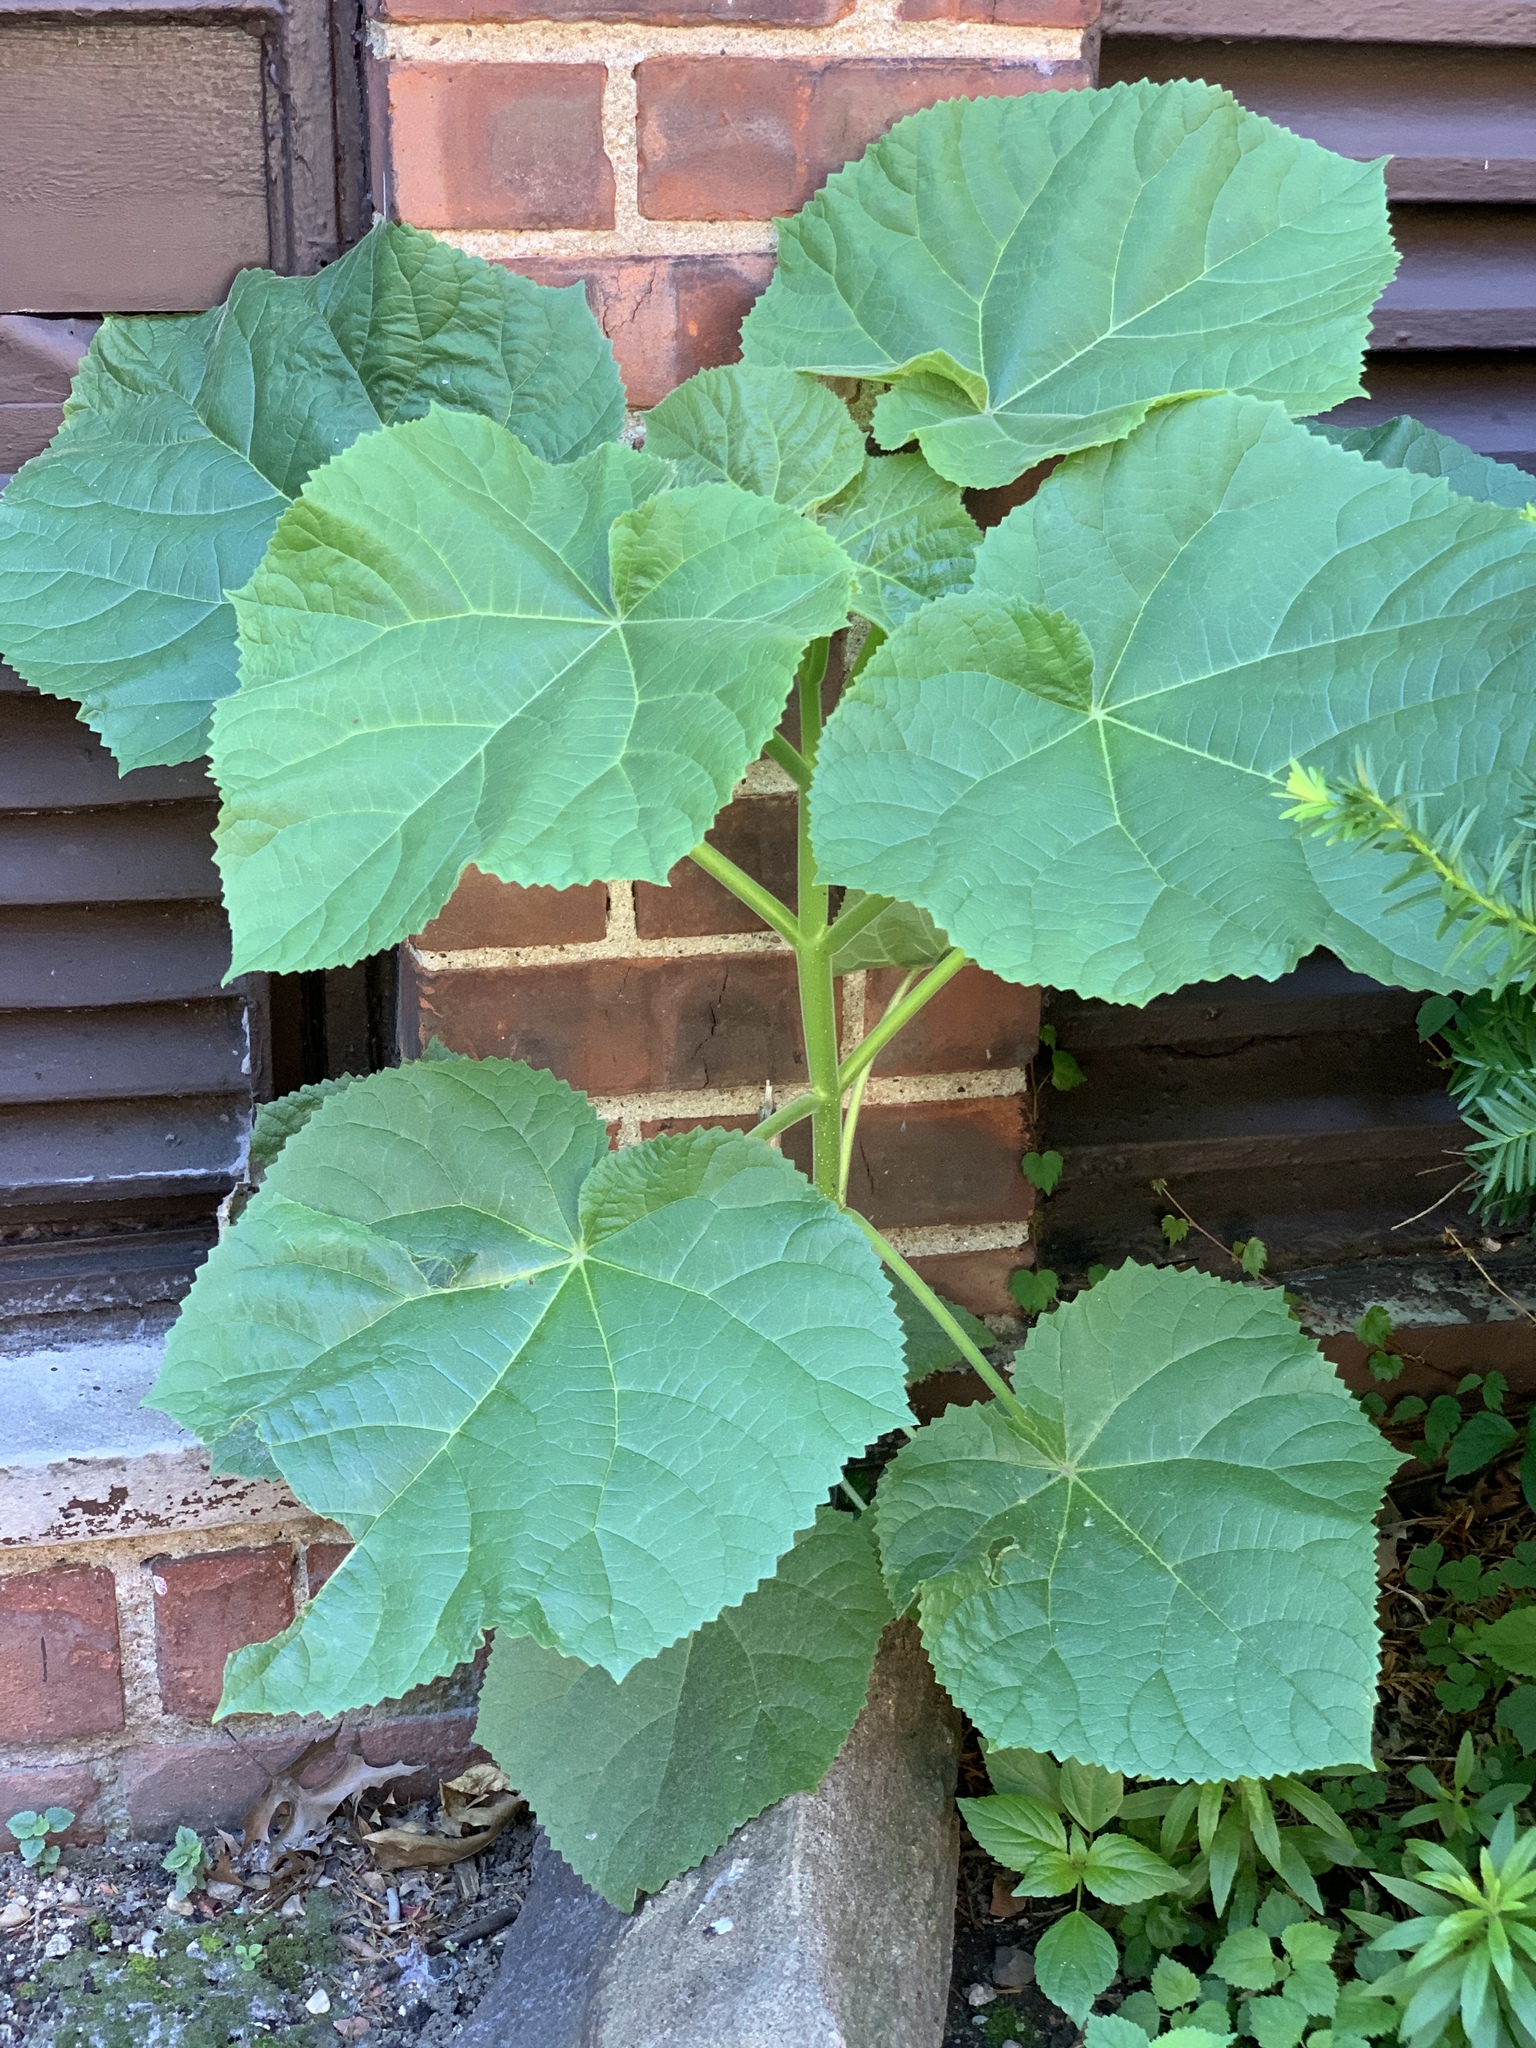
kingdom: Plantae
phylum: Tracheophyta
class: Magnoliopsida
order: Lamiales
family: Paulowniaceae
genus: Paulownia
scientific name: Paulownia tomentosa
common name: Foxglove-tree
